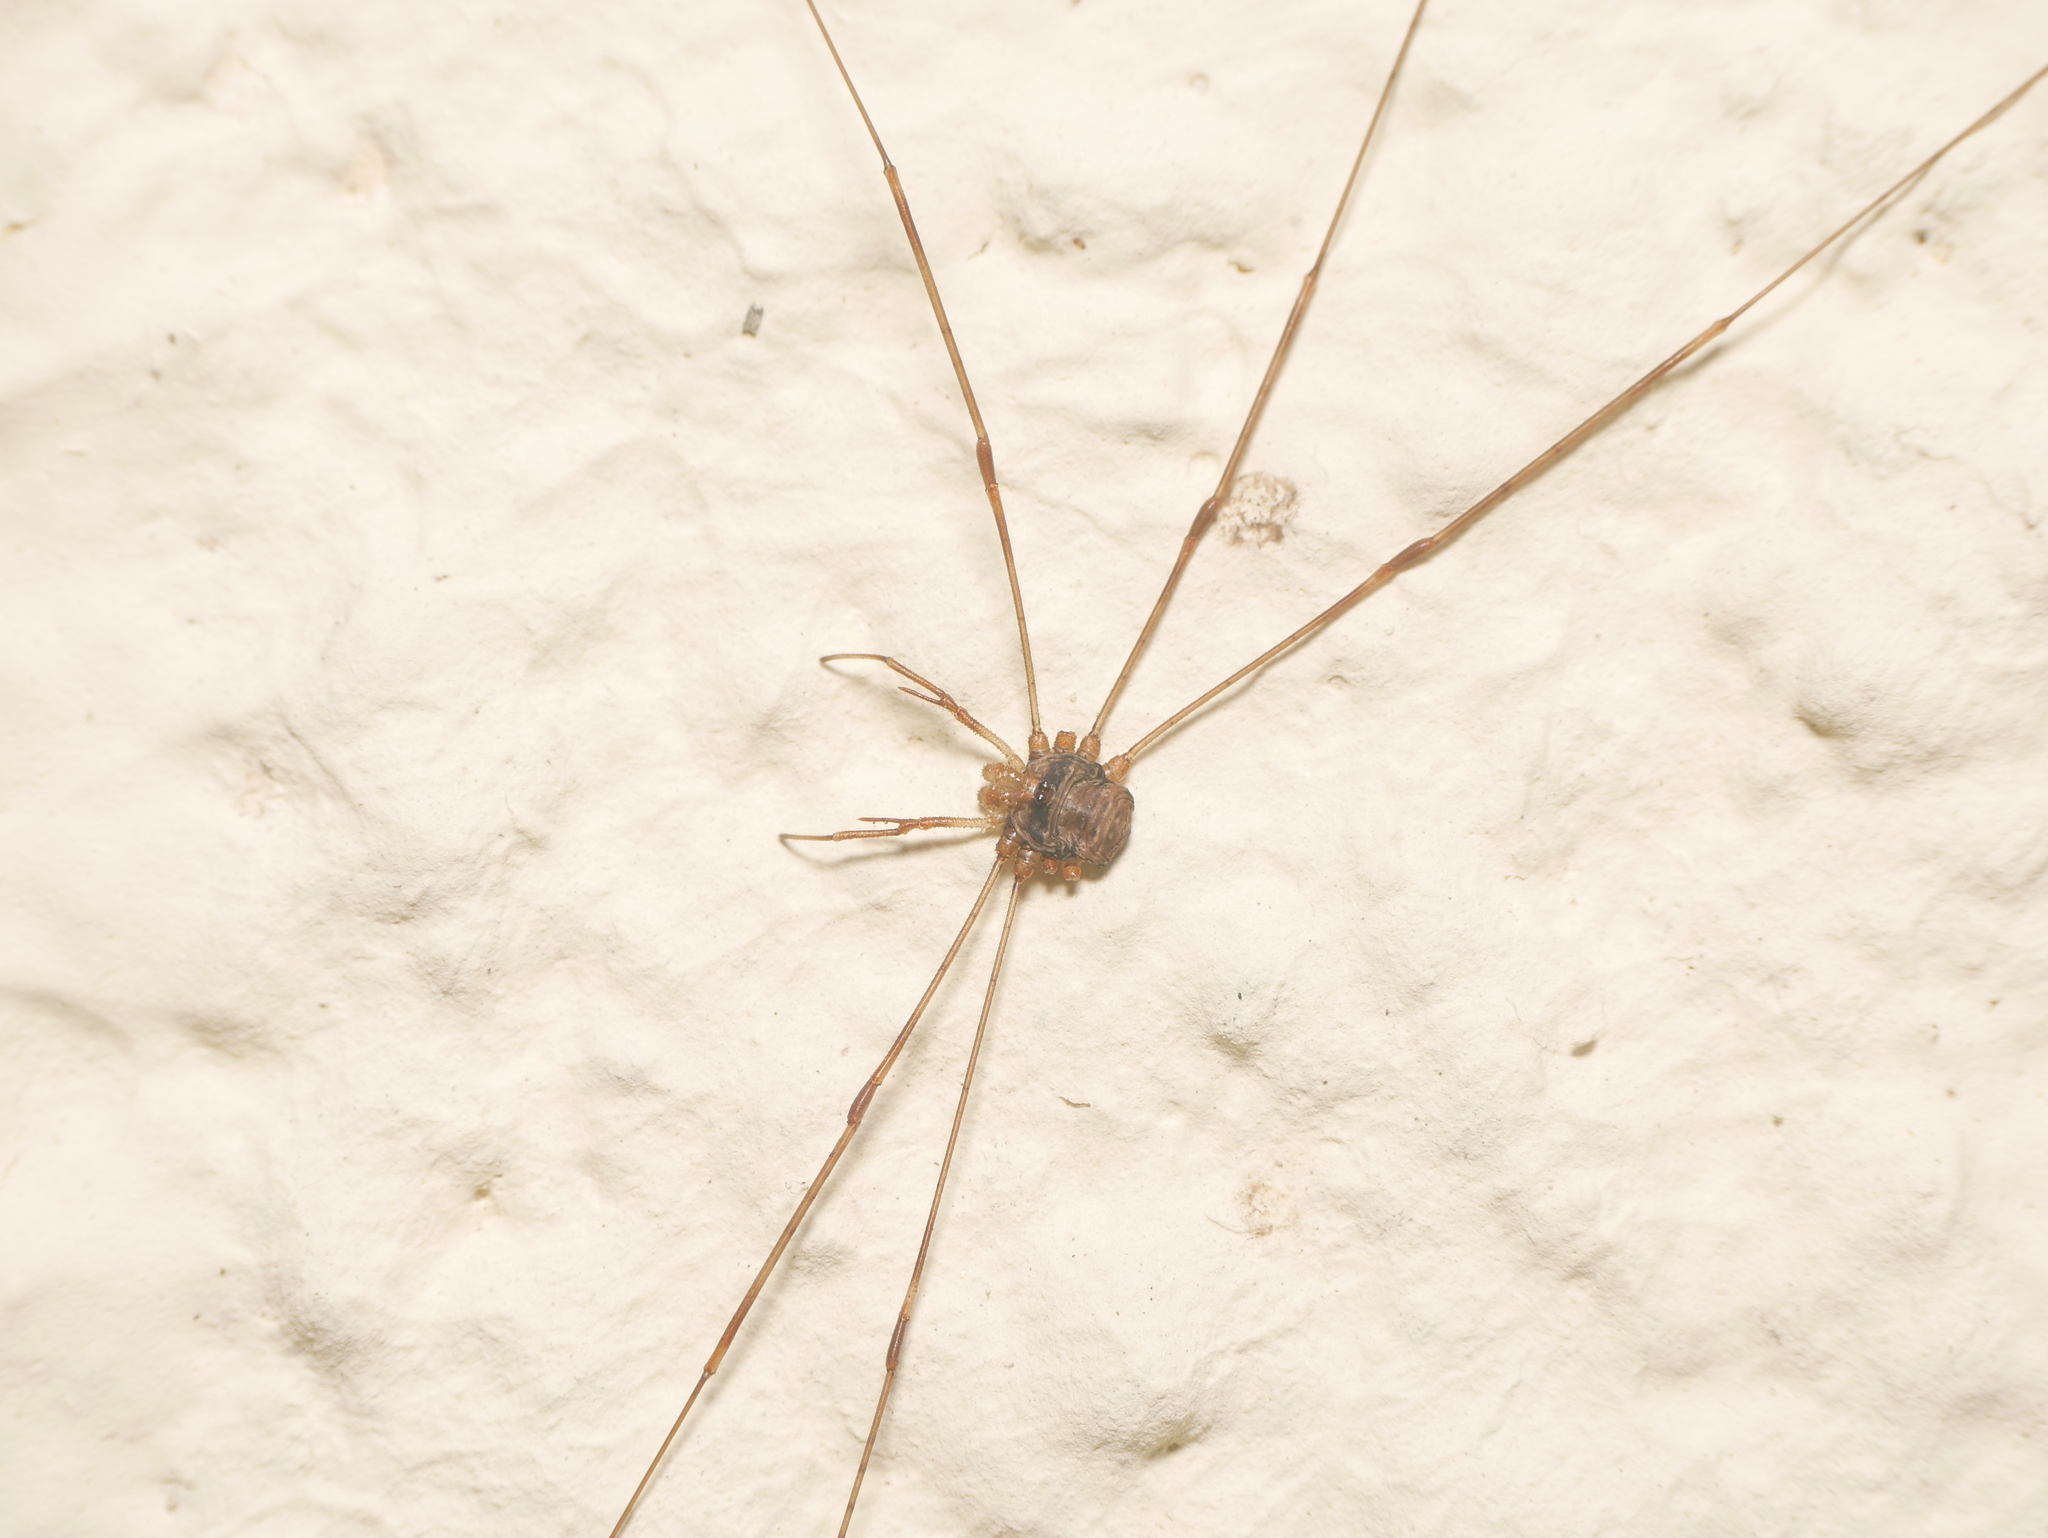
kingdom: Animalia
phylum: Arthropoda
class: Arachnida
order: Opiliones
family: Phalangiidae
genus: Dicranopalpus
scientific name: Dicranopalpus ramosus
